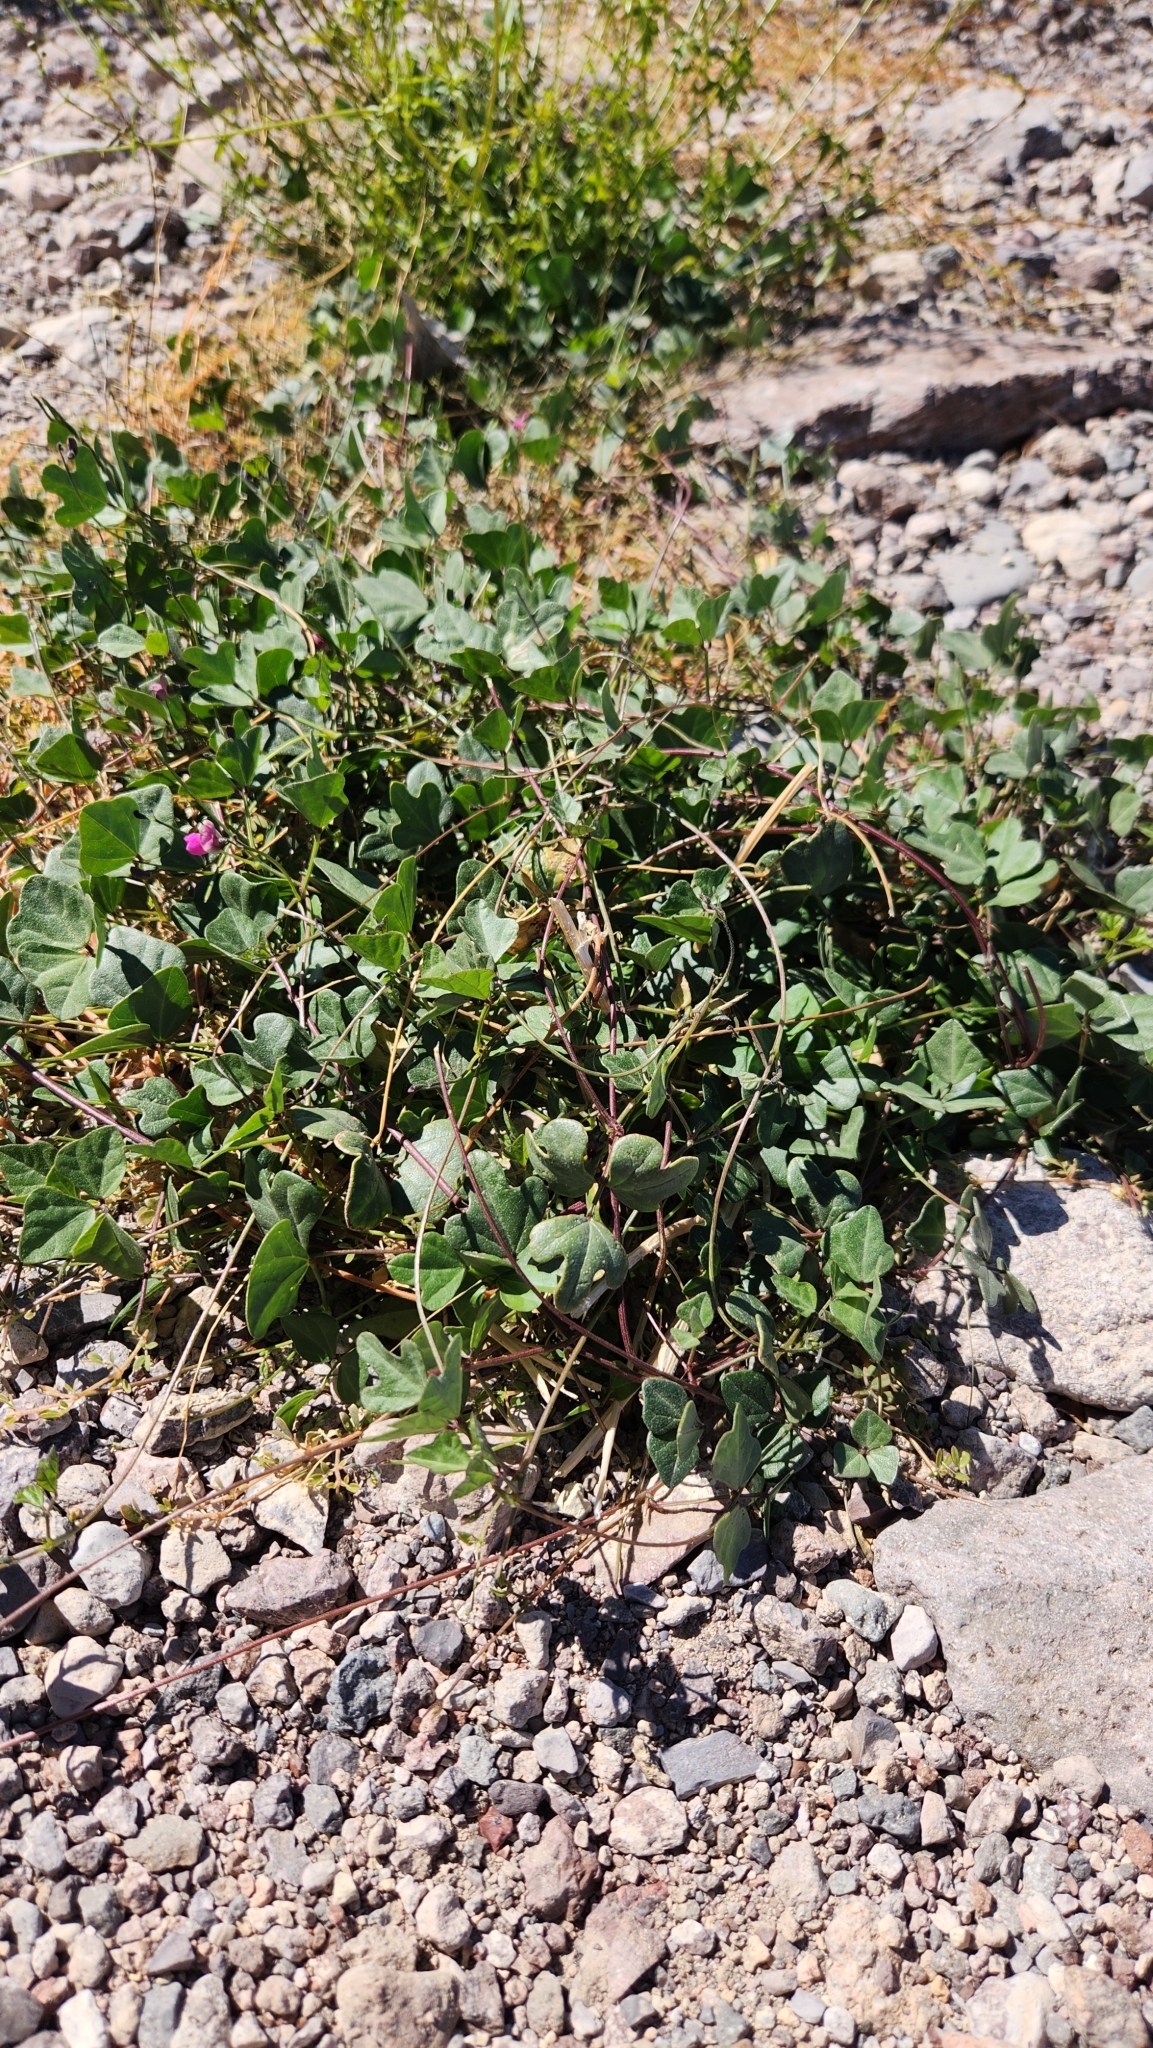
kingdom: Plantae
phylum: Tracheophyta
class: Magnoliopsida
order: Fabales
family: Fabaceae
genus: Phaseolus
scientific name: Phaseolus filiformis
